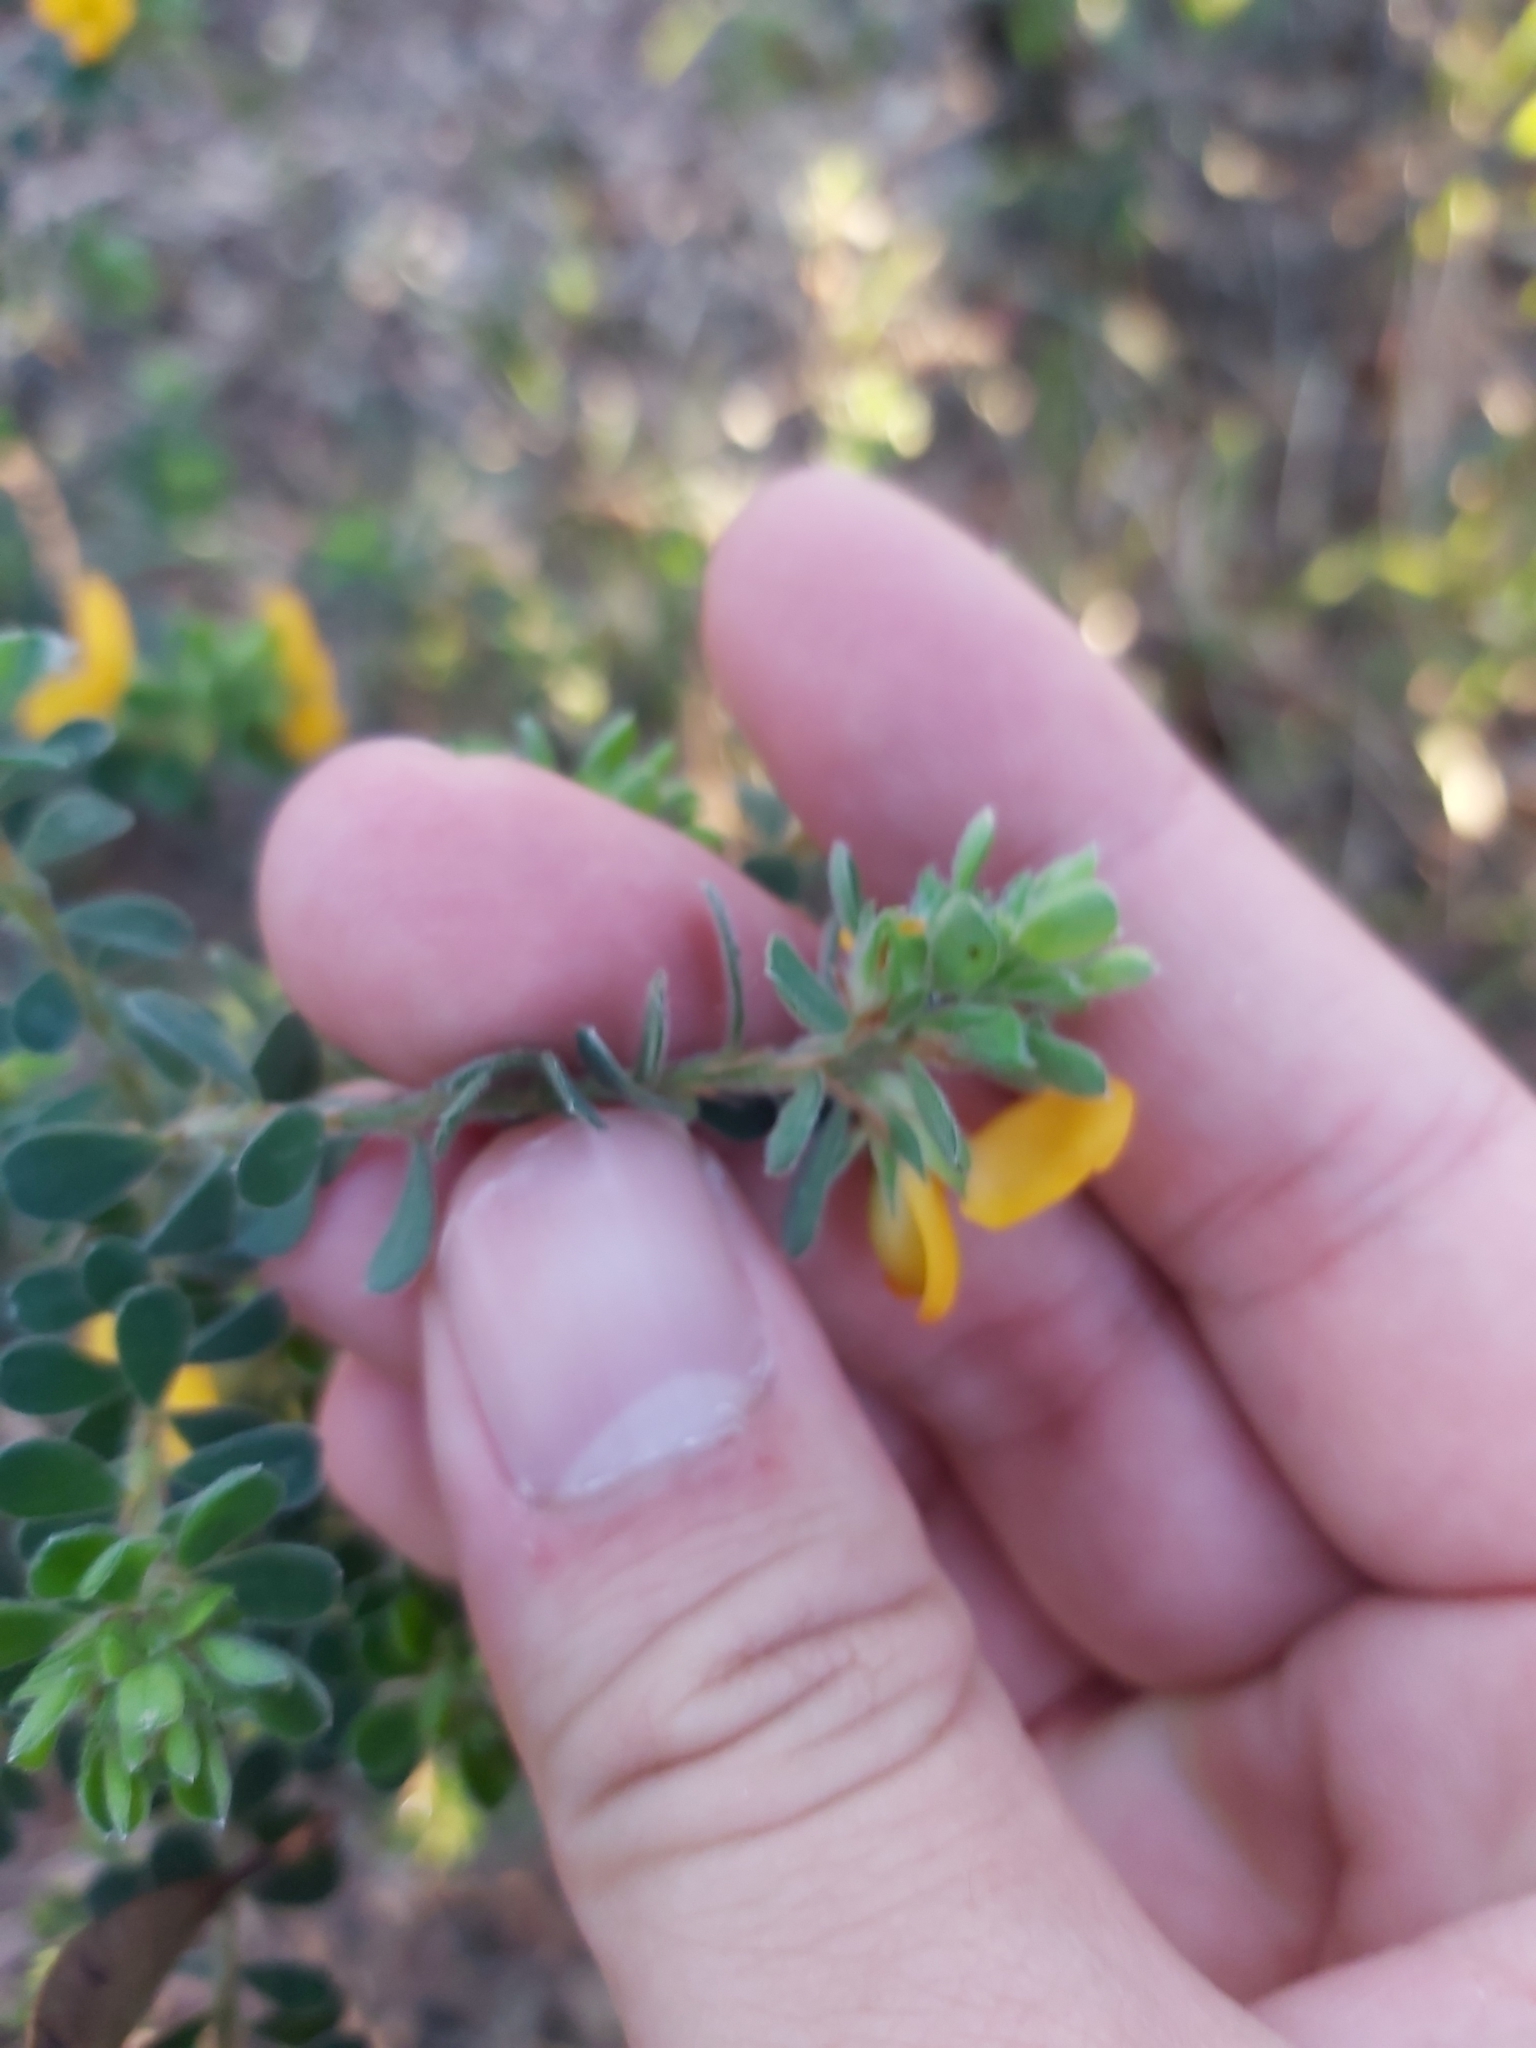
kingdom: Plantae
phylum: Tracheophyta
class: Magnoliopsida
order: Fabales
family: Fabaceae
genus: Pultenaea
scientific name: Pultenaea ferruginea
